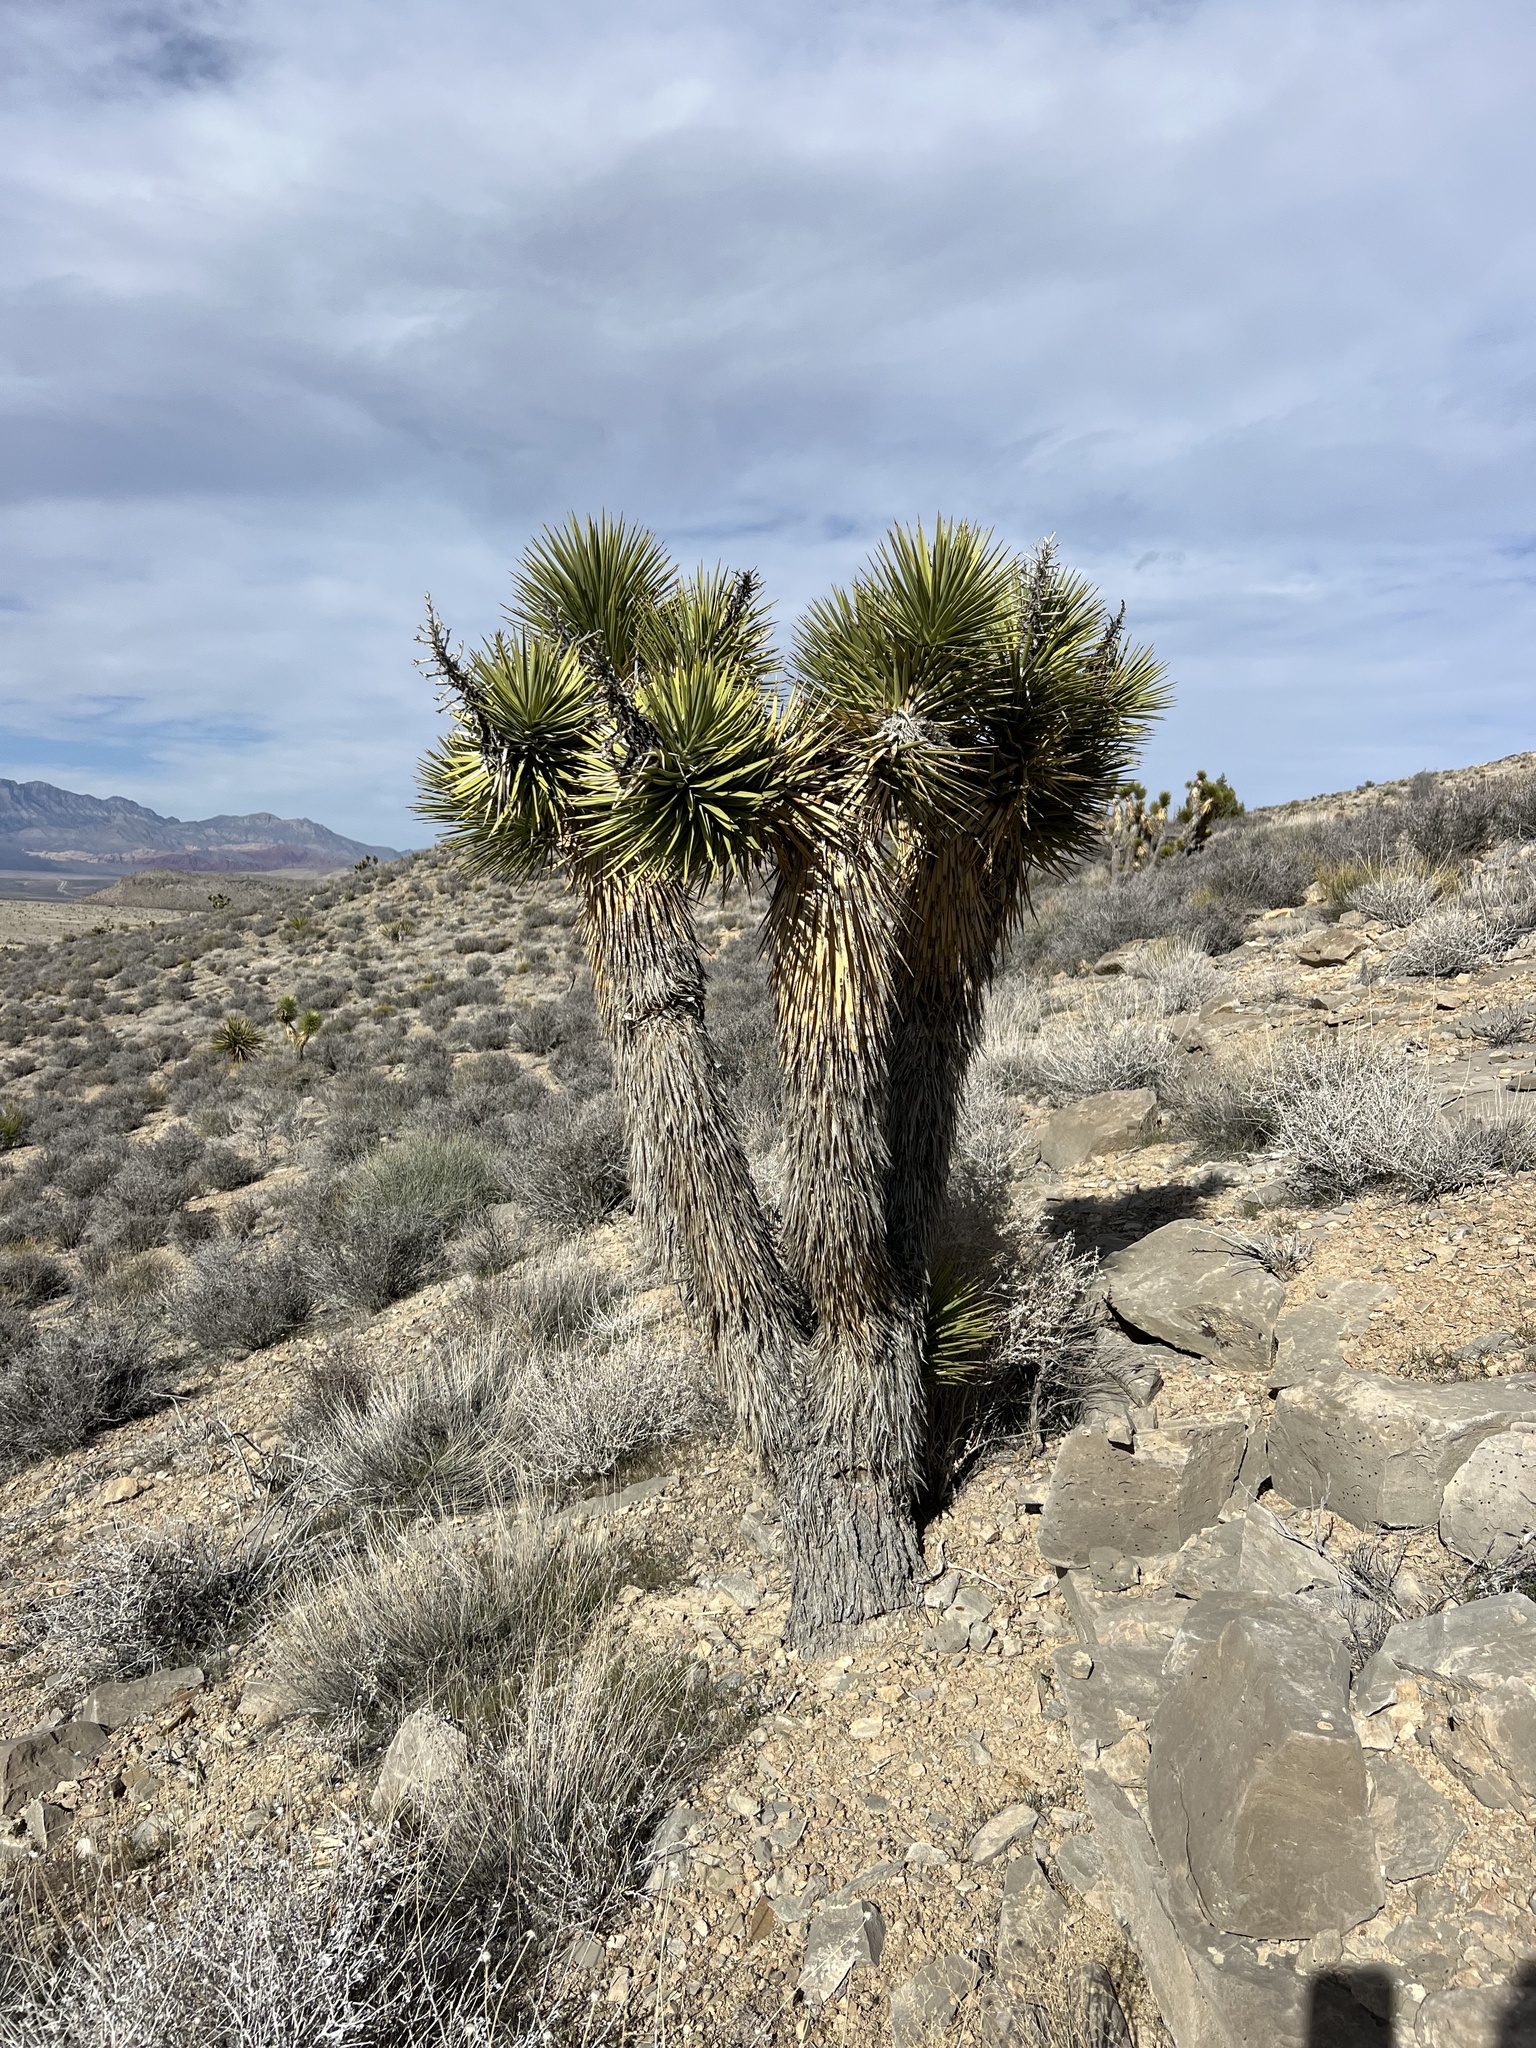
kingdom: Plantae
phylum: Tracheophyta
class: Liliopsida
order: Asparagales
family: Asparagaceae
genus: Yucca
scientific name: Yucca brevifolia
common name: Joshua tree
